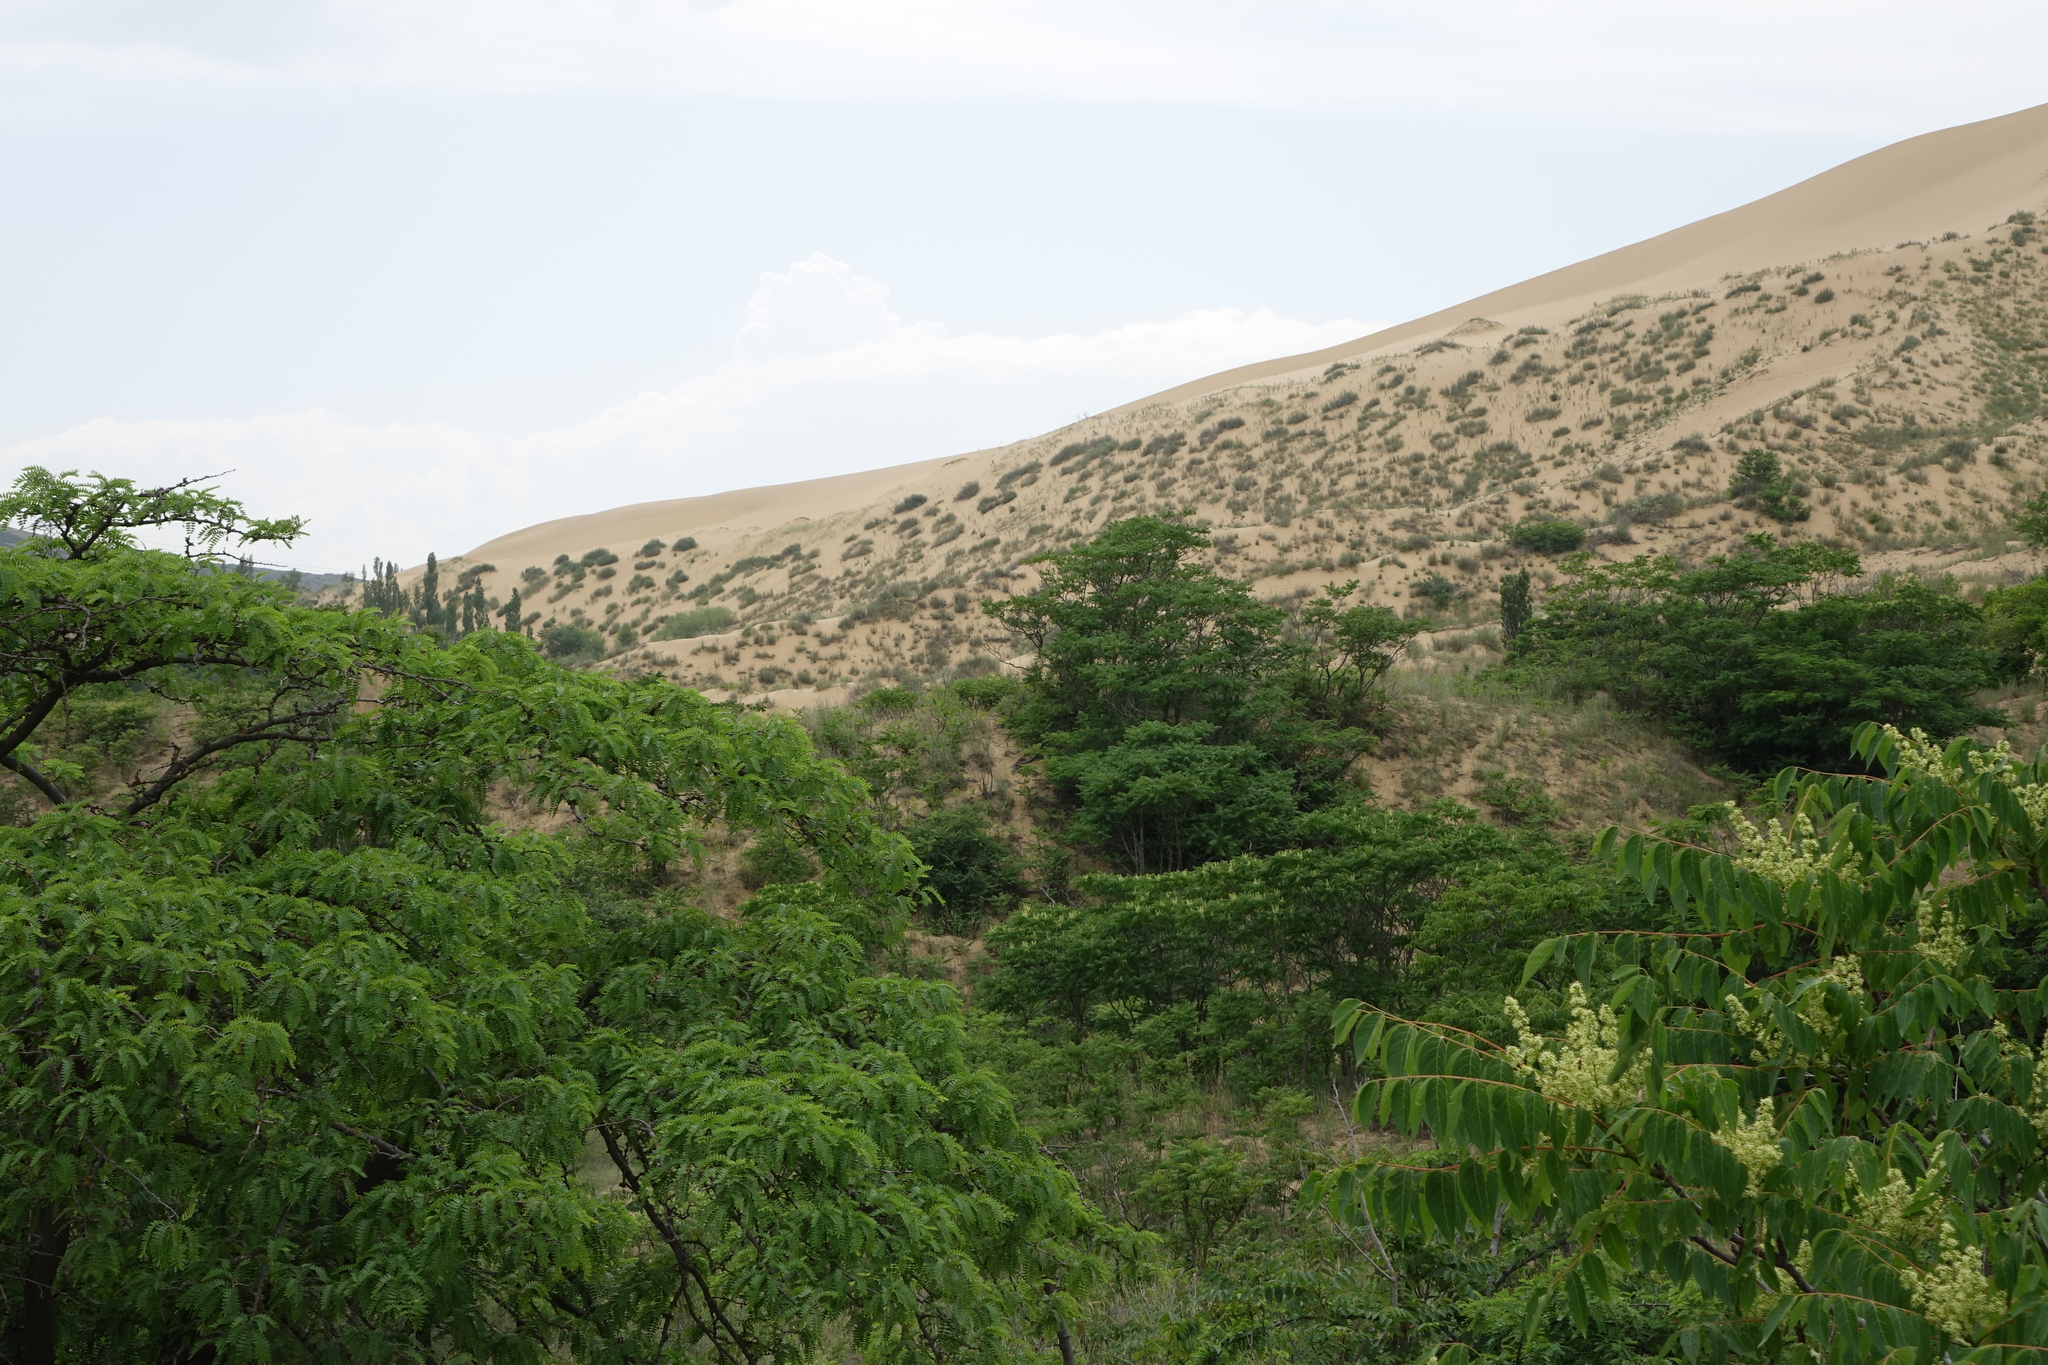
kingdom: Plantae
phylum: Tracheophyta
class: Magnoliopsida
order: Sapindales
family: Simaroubaceae
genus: Ailanthus
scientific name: Ailanthus altissima
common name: Tree-of-heaven
